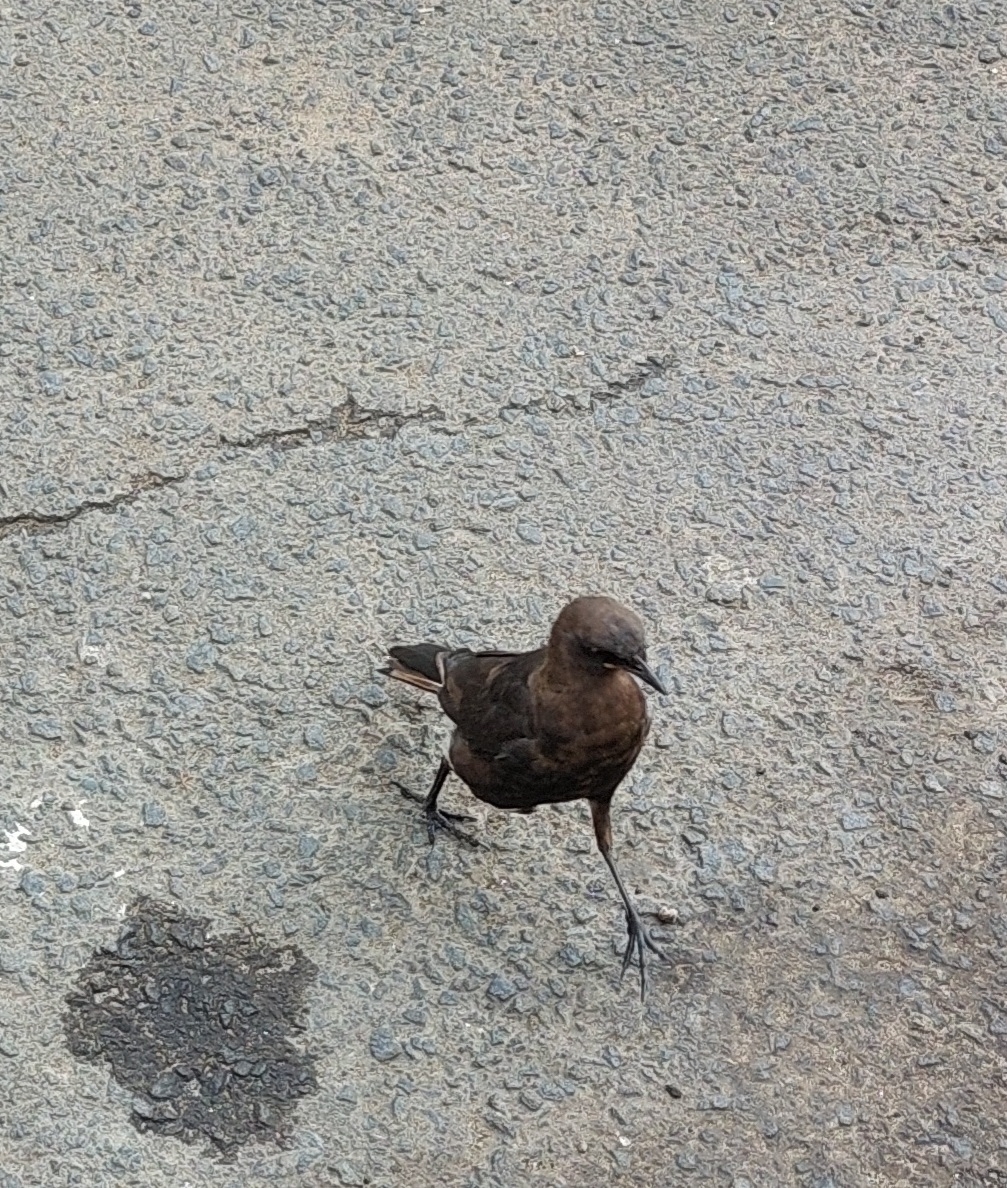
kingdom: Animalia
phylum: Chordata
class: Aves
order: Passeriformes
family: Sturnidae
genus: Lamprotornis
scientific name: Lamprotornis bicolor
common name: Pied starling
